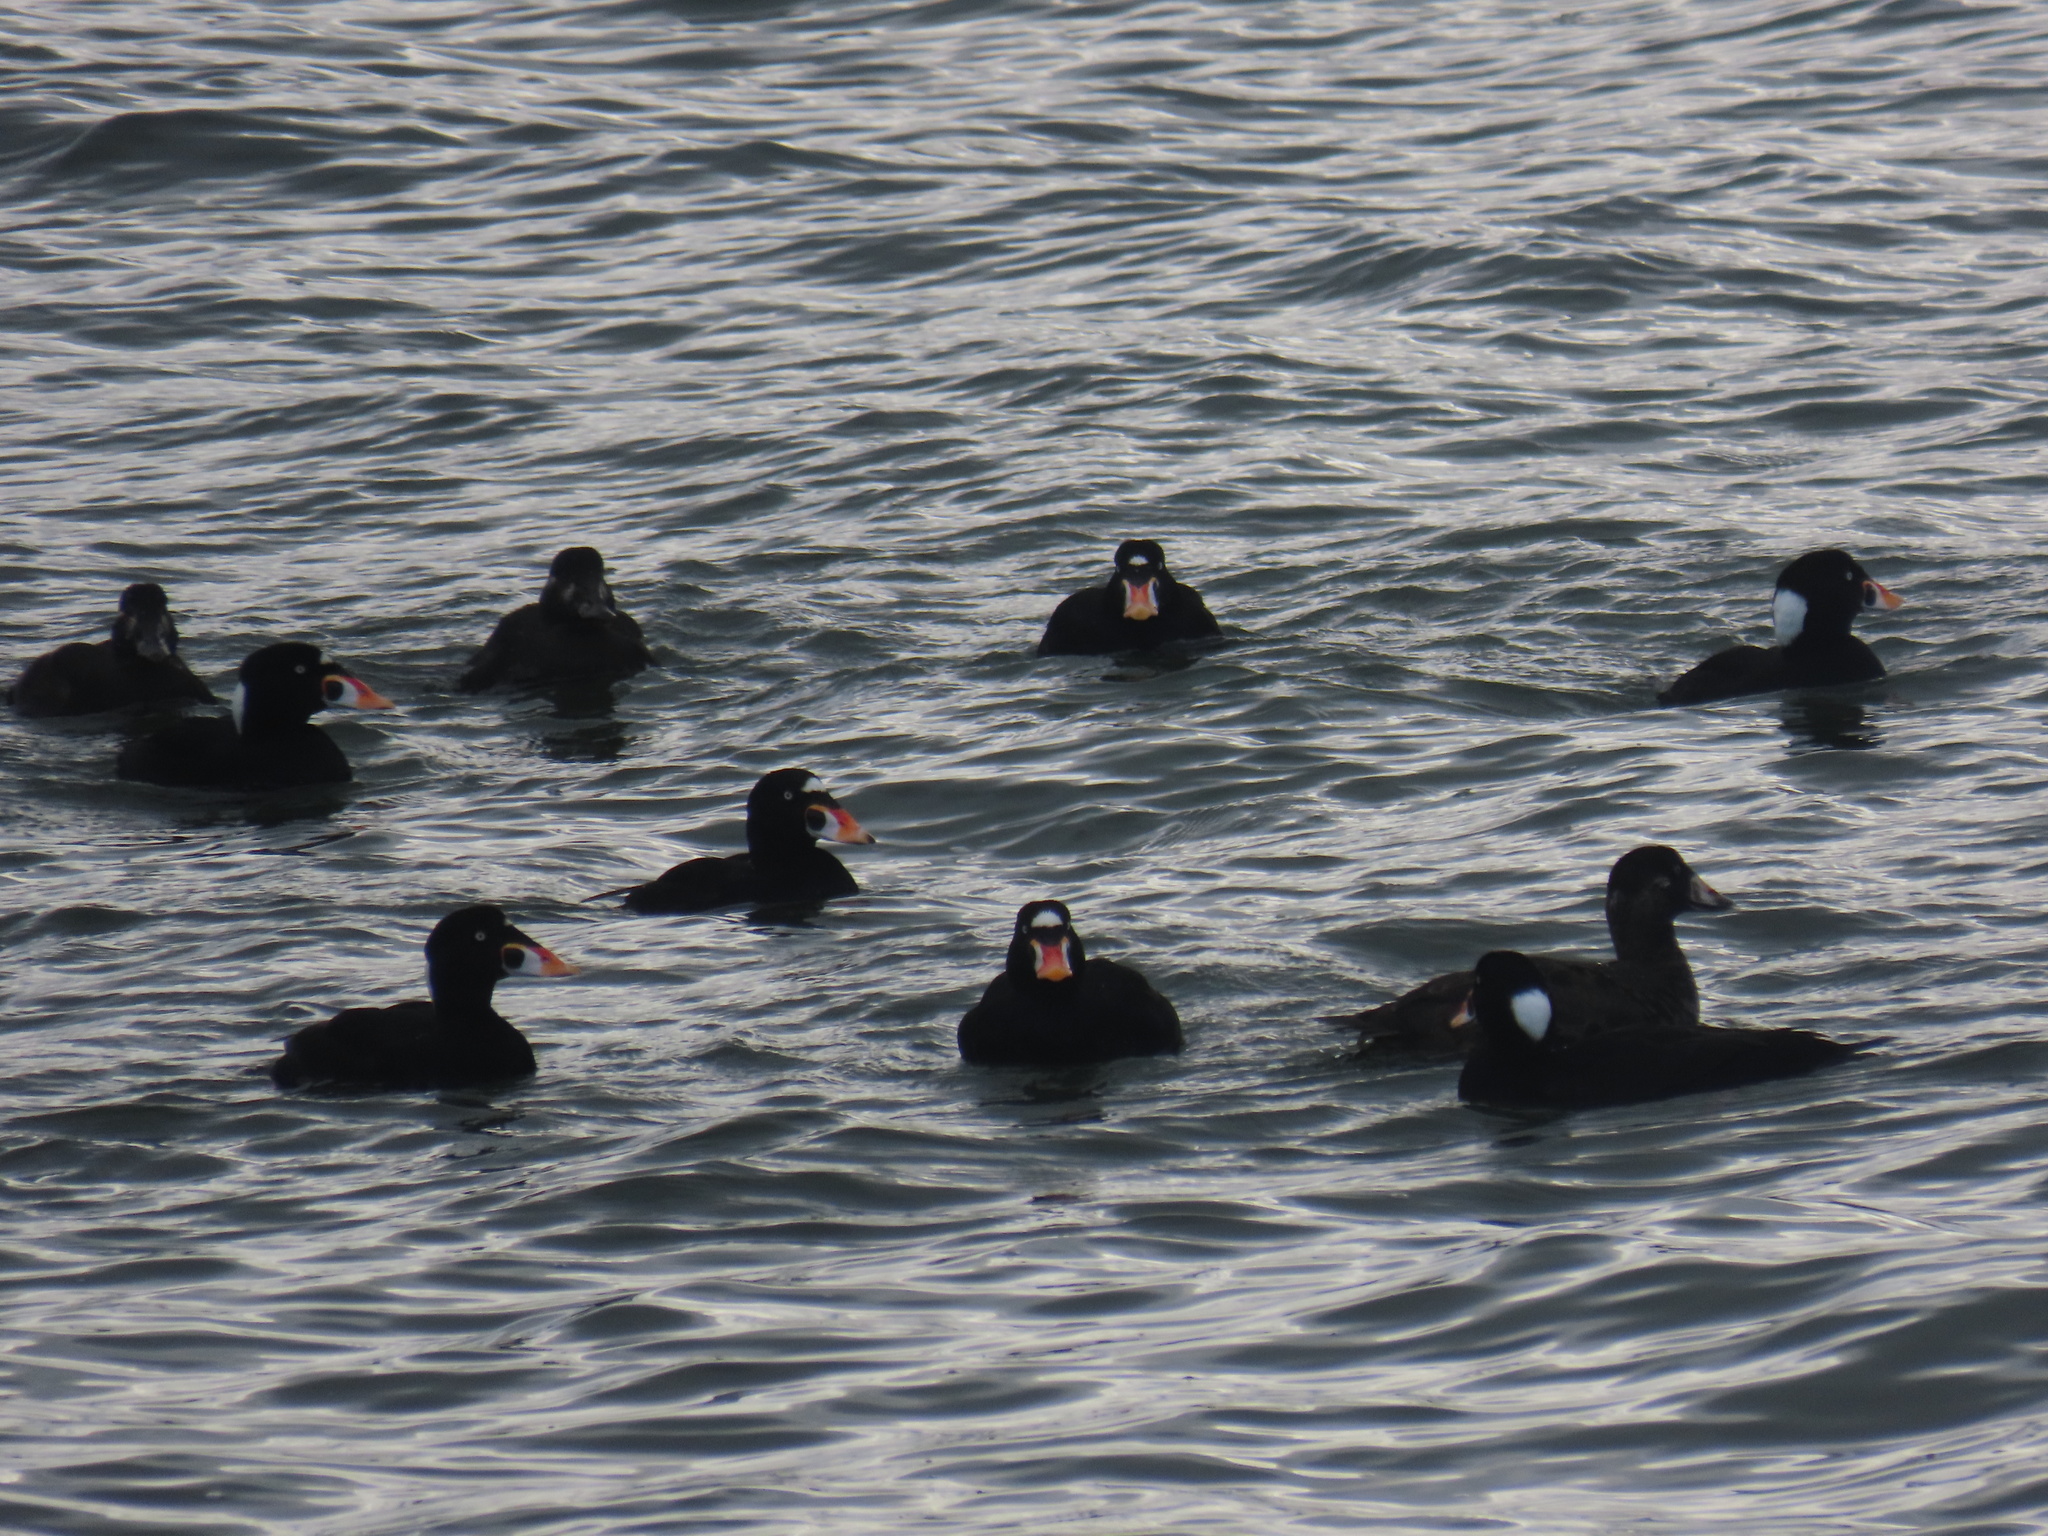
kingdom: Animalia
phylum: Chordata
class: Aves
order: Anseriformes
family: Anatidae
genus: Melanitta
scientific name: Melanitta perspicillata
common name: Surf scoter
